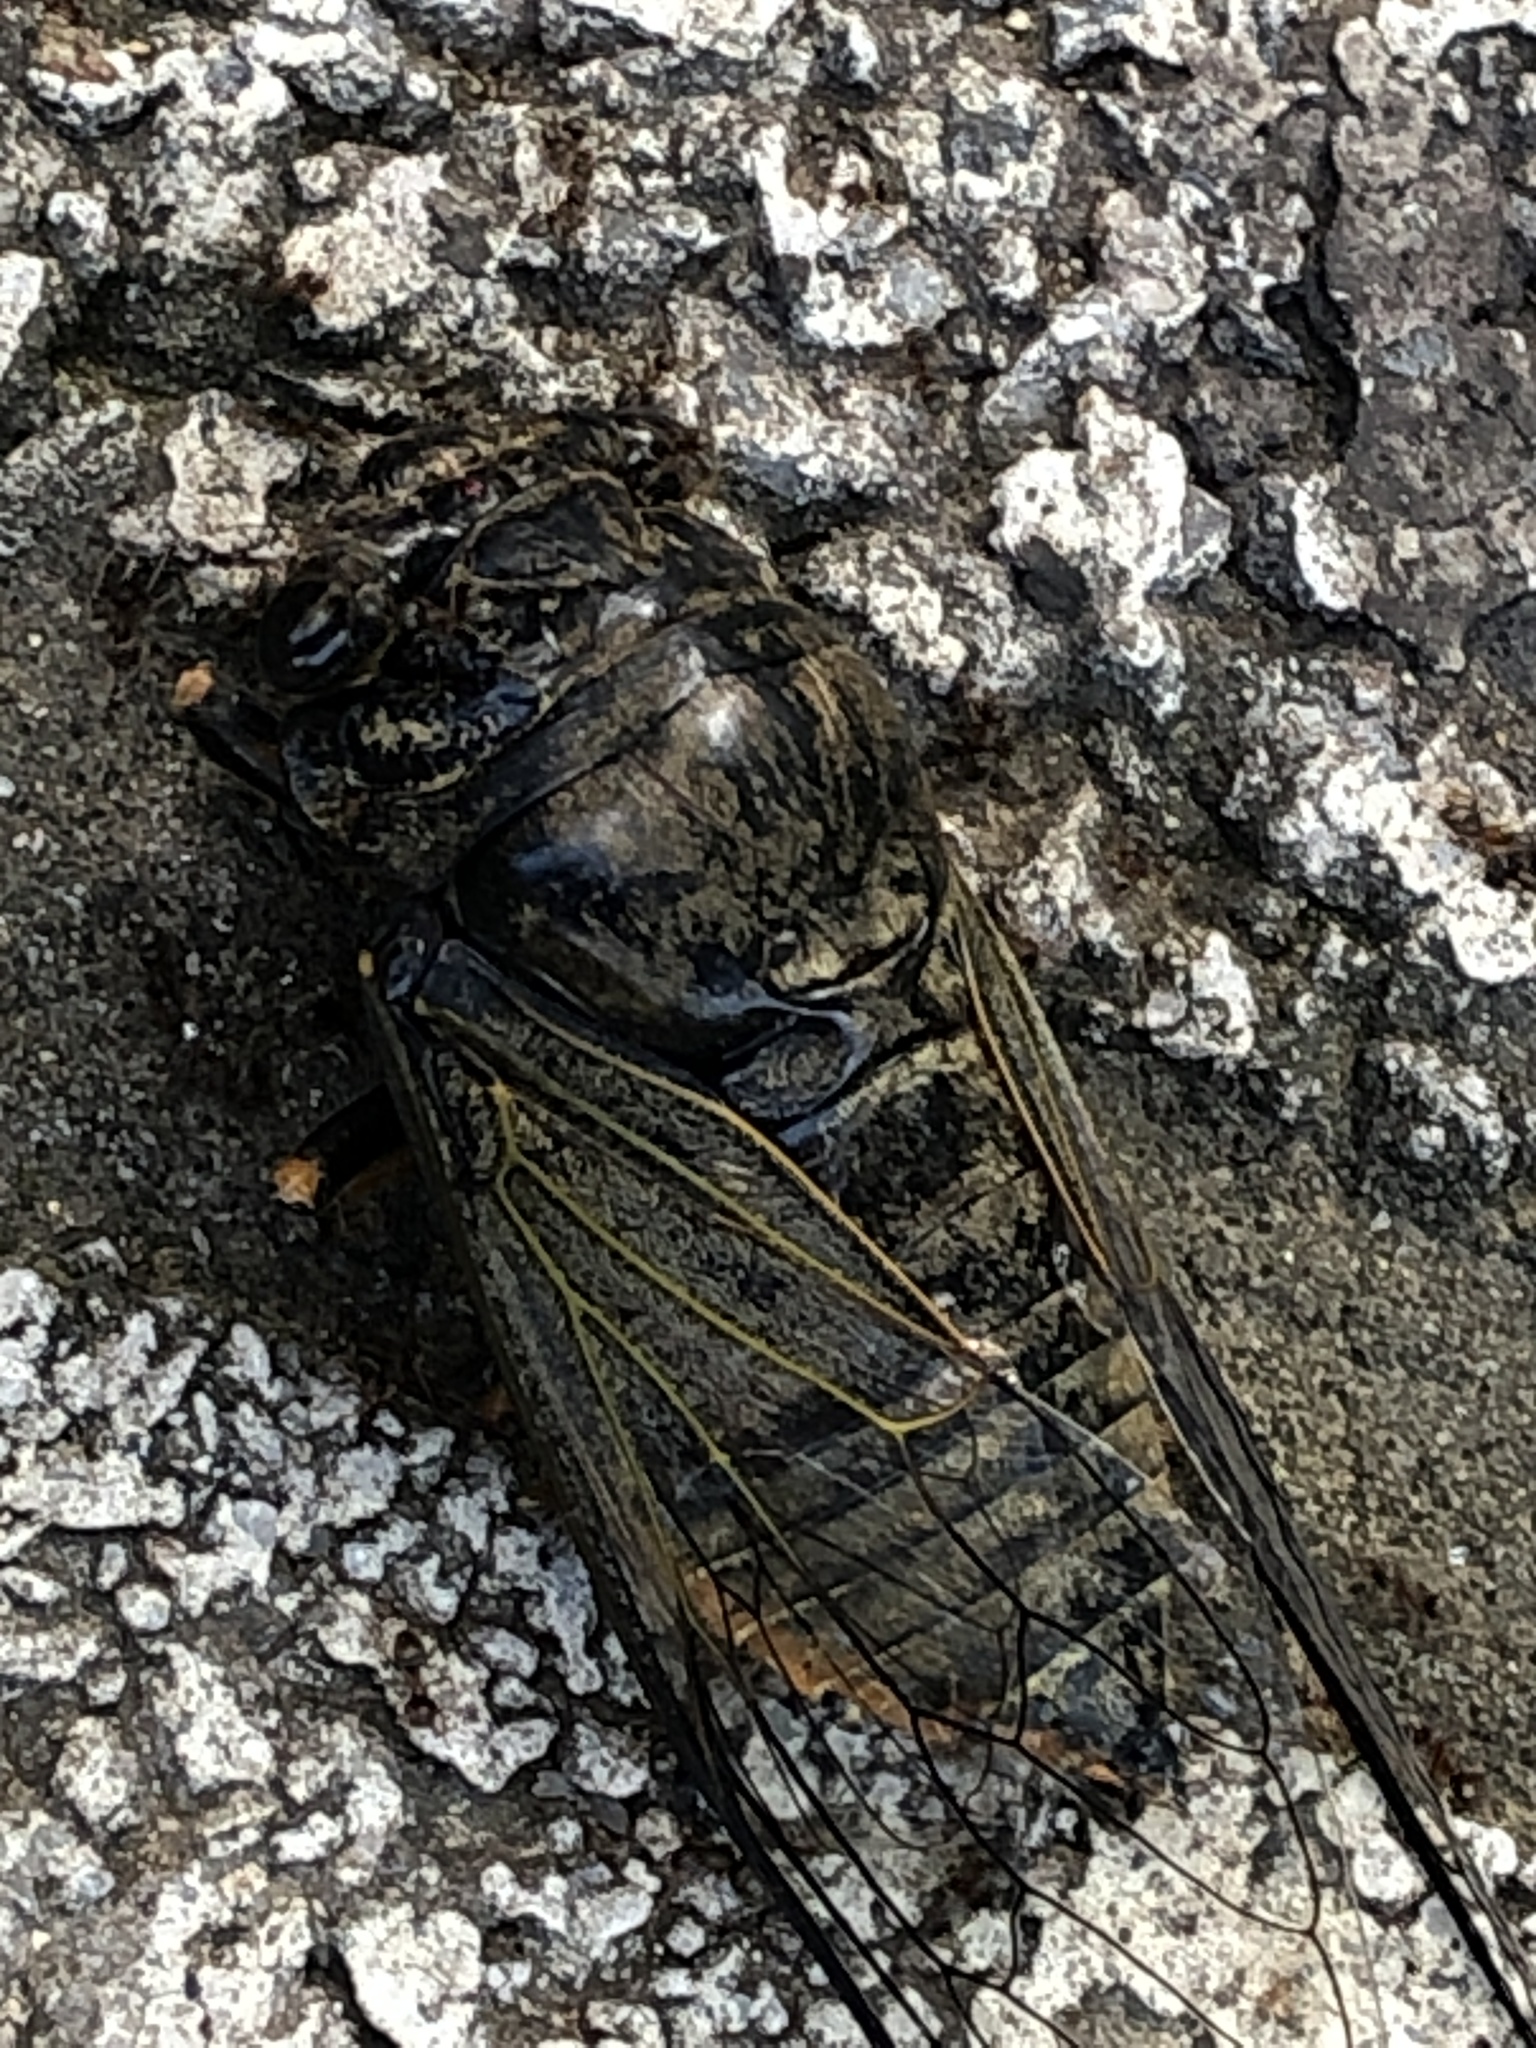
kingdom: Animalia
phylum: Arthropoda
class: Insecta
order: Hemiptera
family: Cicadidae
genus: Cryptotympana
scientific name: Cryptotympana atrata
